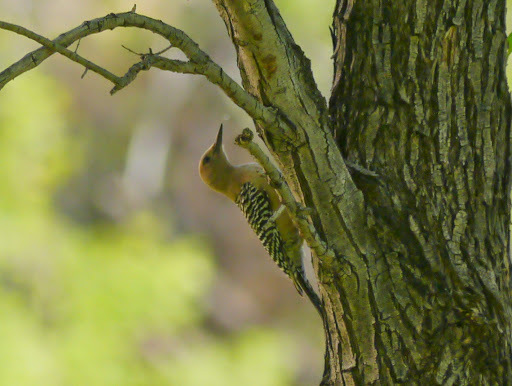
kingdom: Animalia
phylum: Chordata
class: Aves
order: Piciformes
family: Picidae
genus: Melanerpes
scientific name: Melanerpes uropygialis
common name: Gila woodpecker
